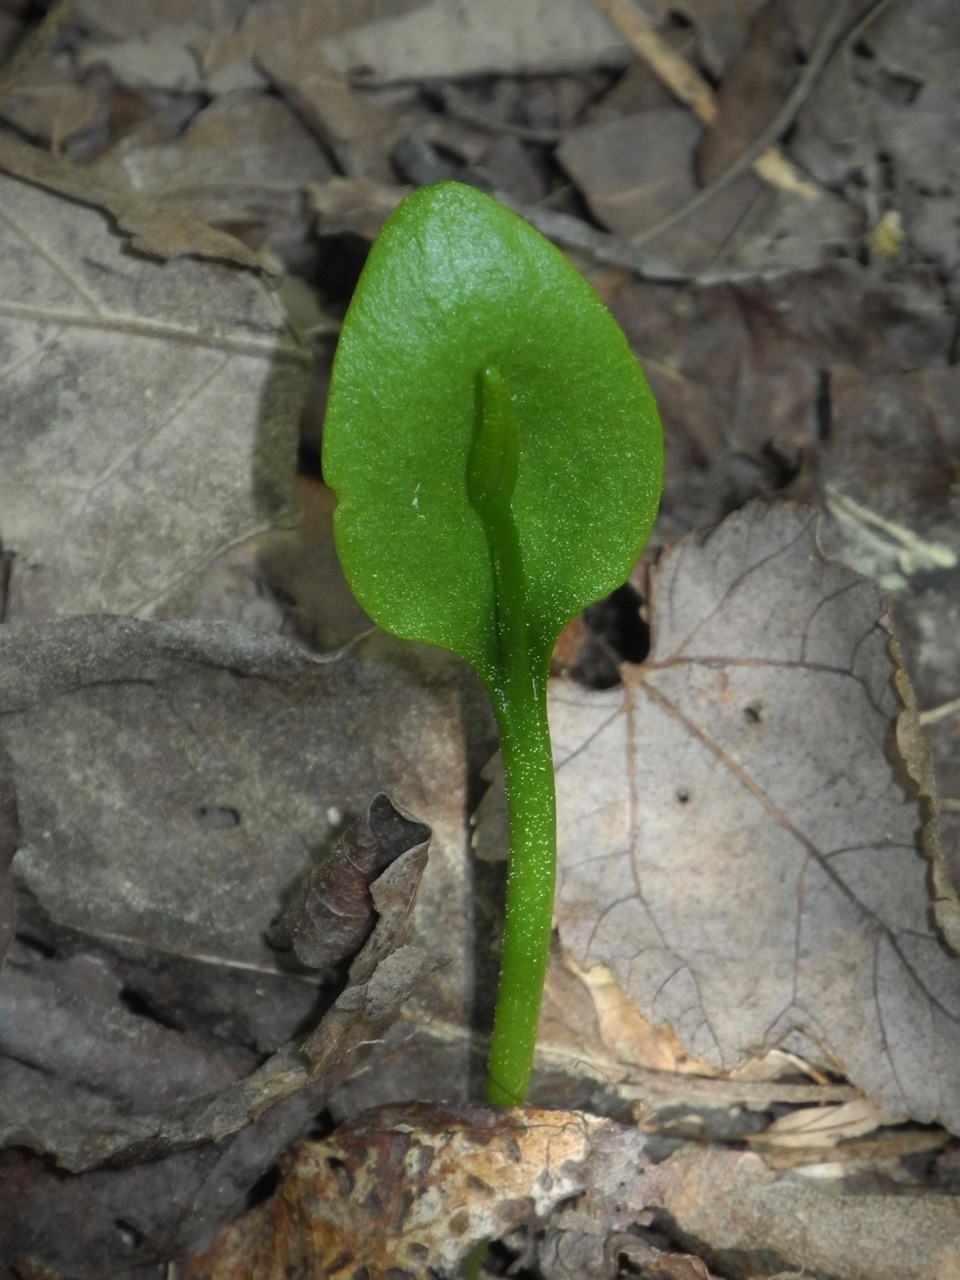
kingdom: Plantae
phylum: Tracheophyta
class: Polypodiopsida
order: Ophioglossales
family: Ophioglossaceae
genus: Ophioglossum
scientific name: Ophioglossum vulgatum
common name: Adder's-tongue
